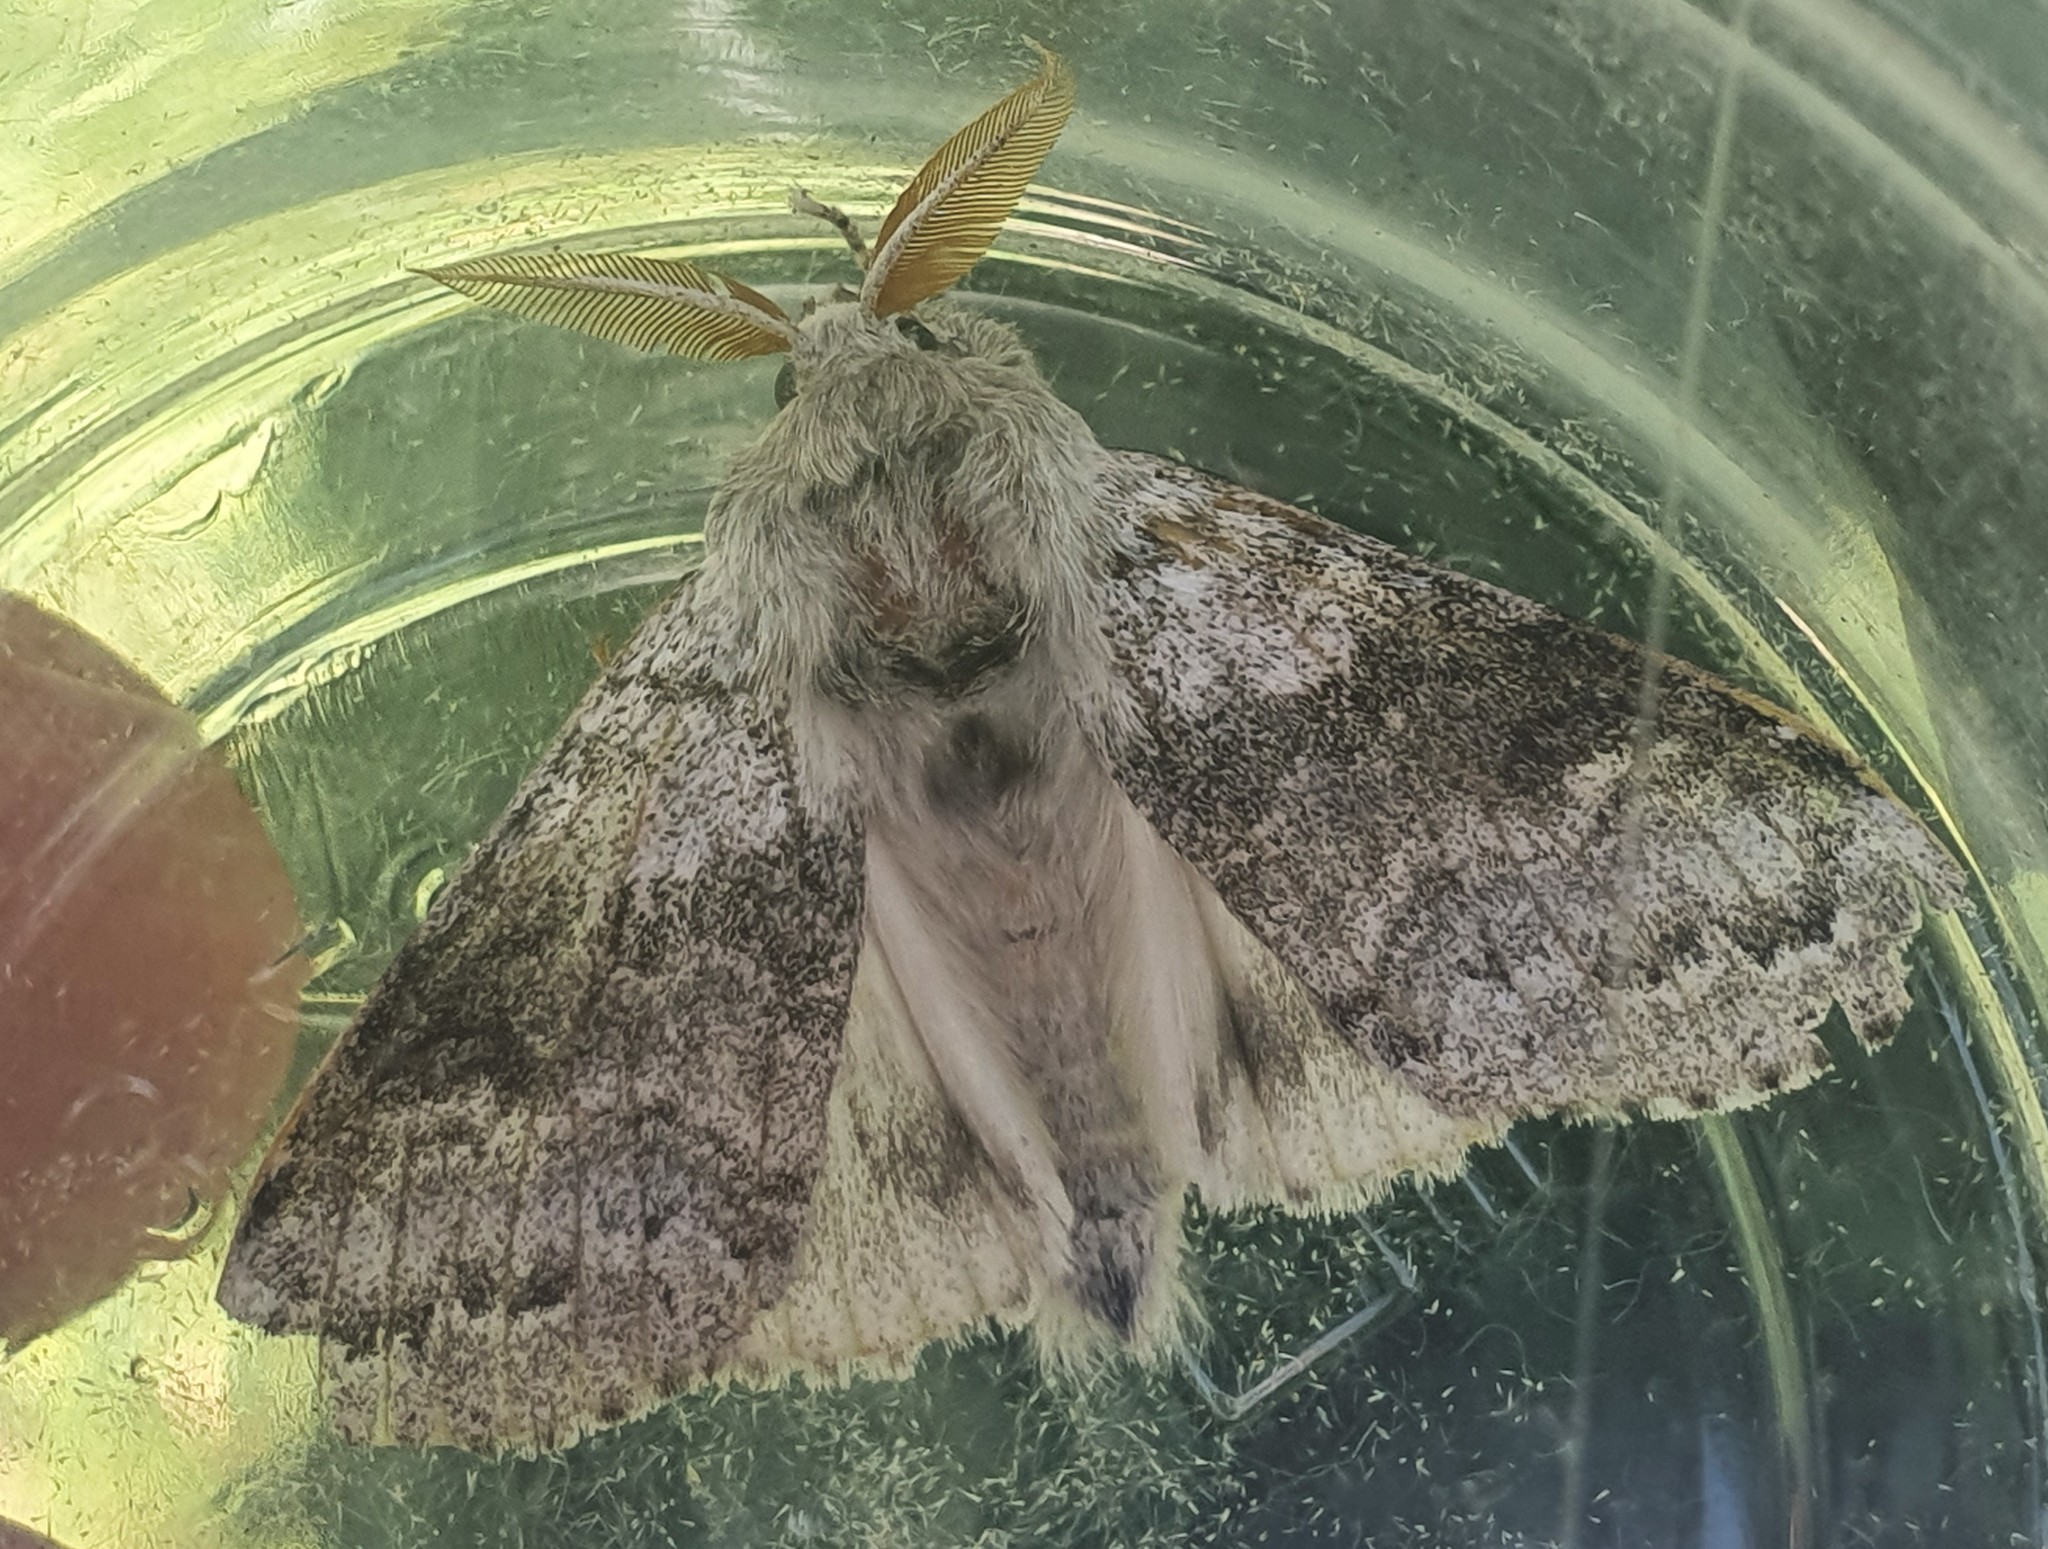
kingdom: Animalia
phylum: Arthropoda
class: Insecta
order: Lepidoptera
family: Erebidae
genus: Calliteara
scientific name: Calliteara pudibunda
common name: Pale tussock
